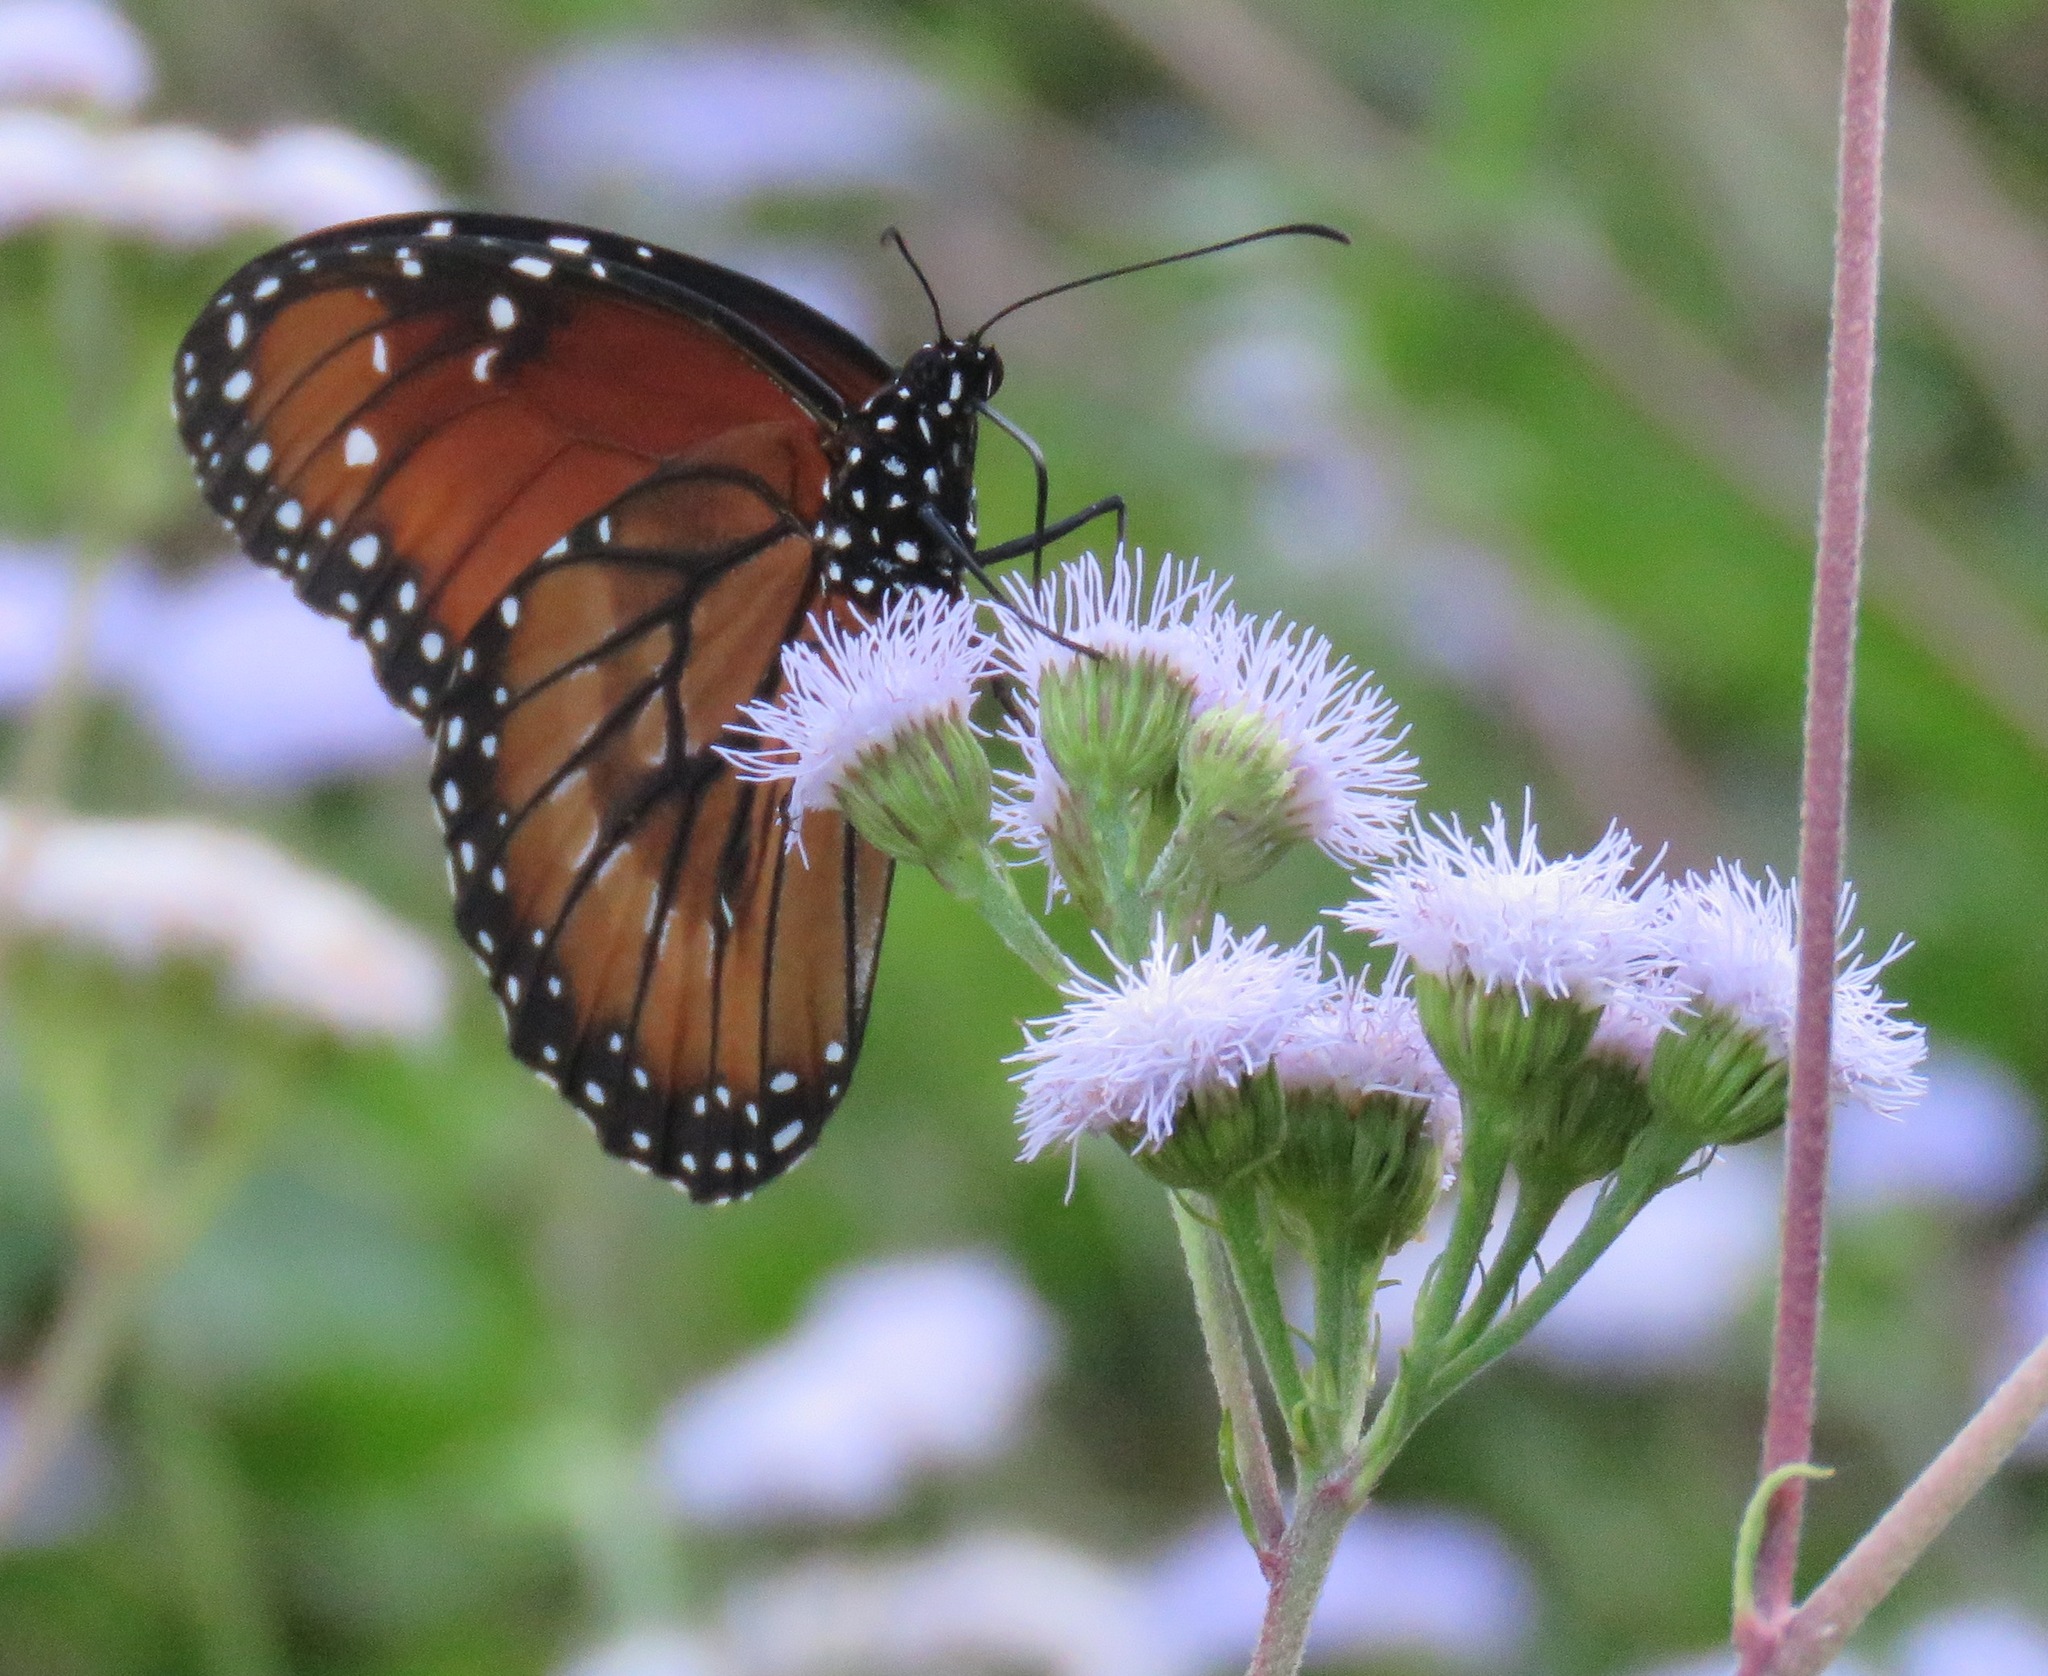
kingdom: Animalia
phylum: Arthropoda
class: Insecta
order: Lepidoptera
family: Nymphalidae
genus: Danaus
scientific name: Danaus eresimus
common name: Soldier
